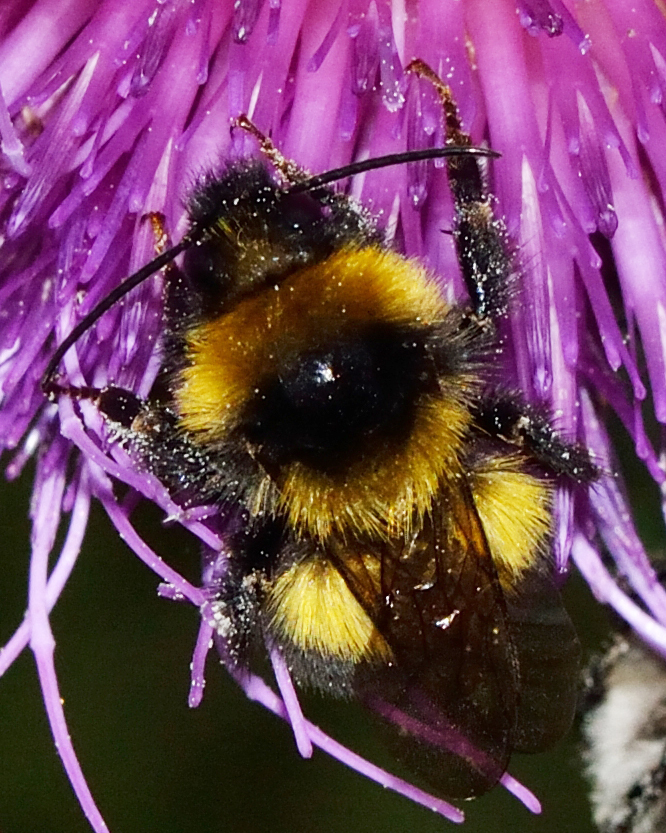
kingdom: Animalia
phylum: Arthropoda
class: Insecta
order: Hymenoptera
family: Apidae
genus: Bombus
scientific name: Bombus hortorum
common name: Garden bumblebee
